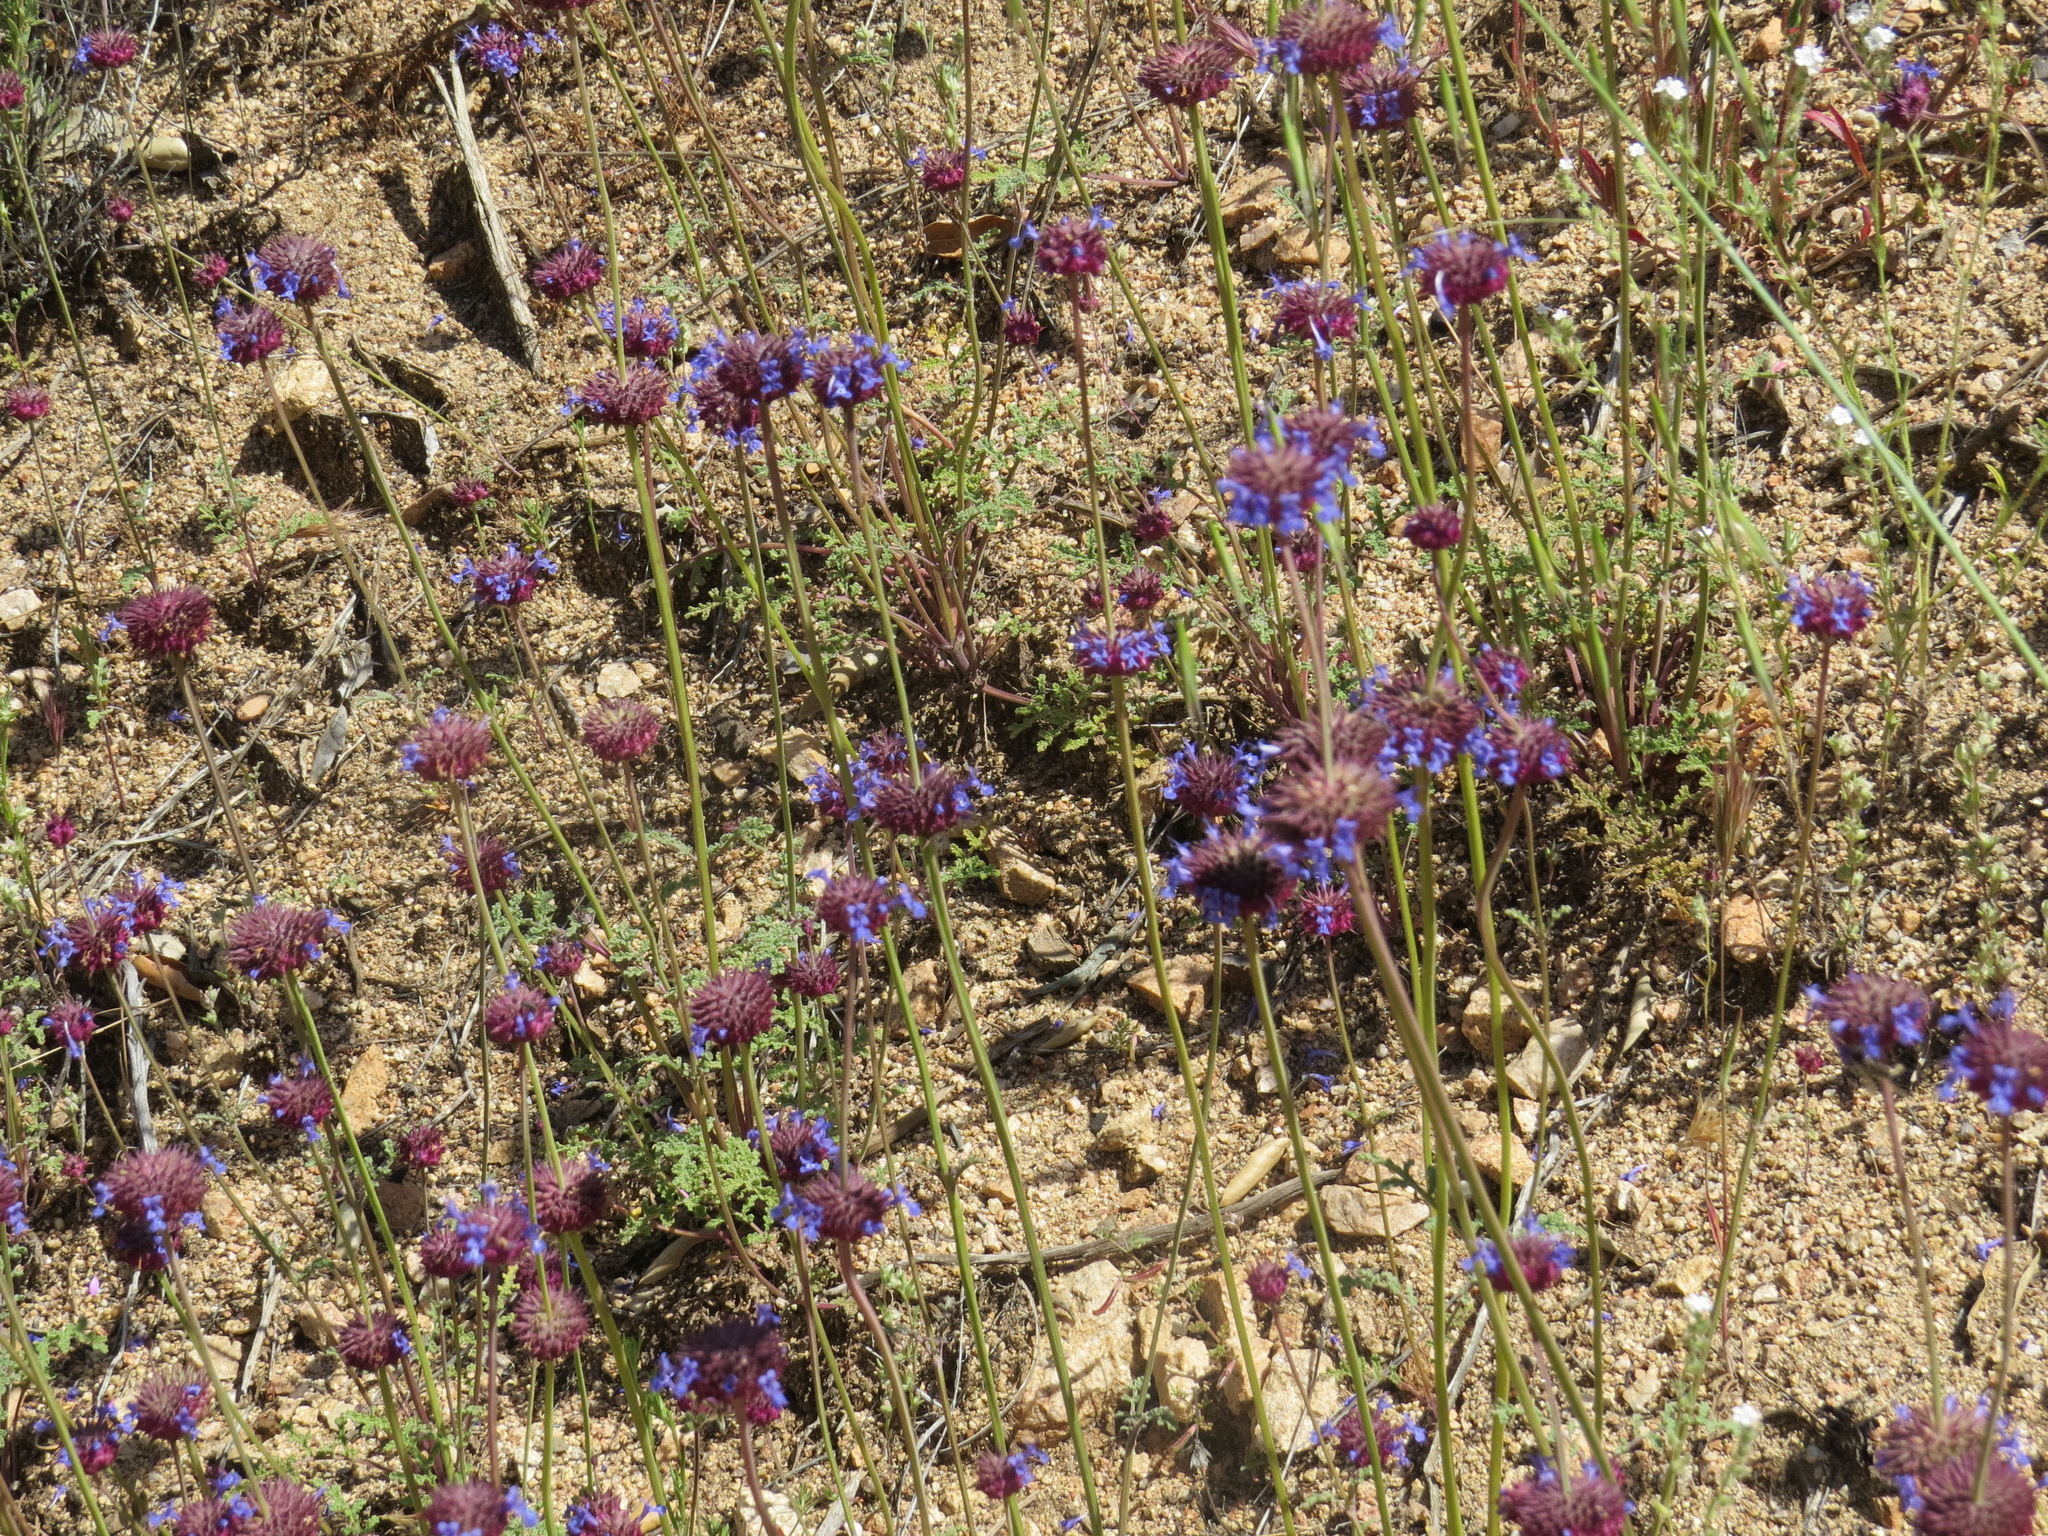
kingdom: Plantae
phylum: Tracheophyta
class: Magnoliopsida
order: Lamiales
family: Lamiaceae
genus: Salvia
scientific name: Salvia columbariae
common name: Chia
